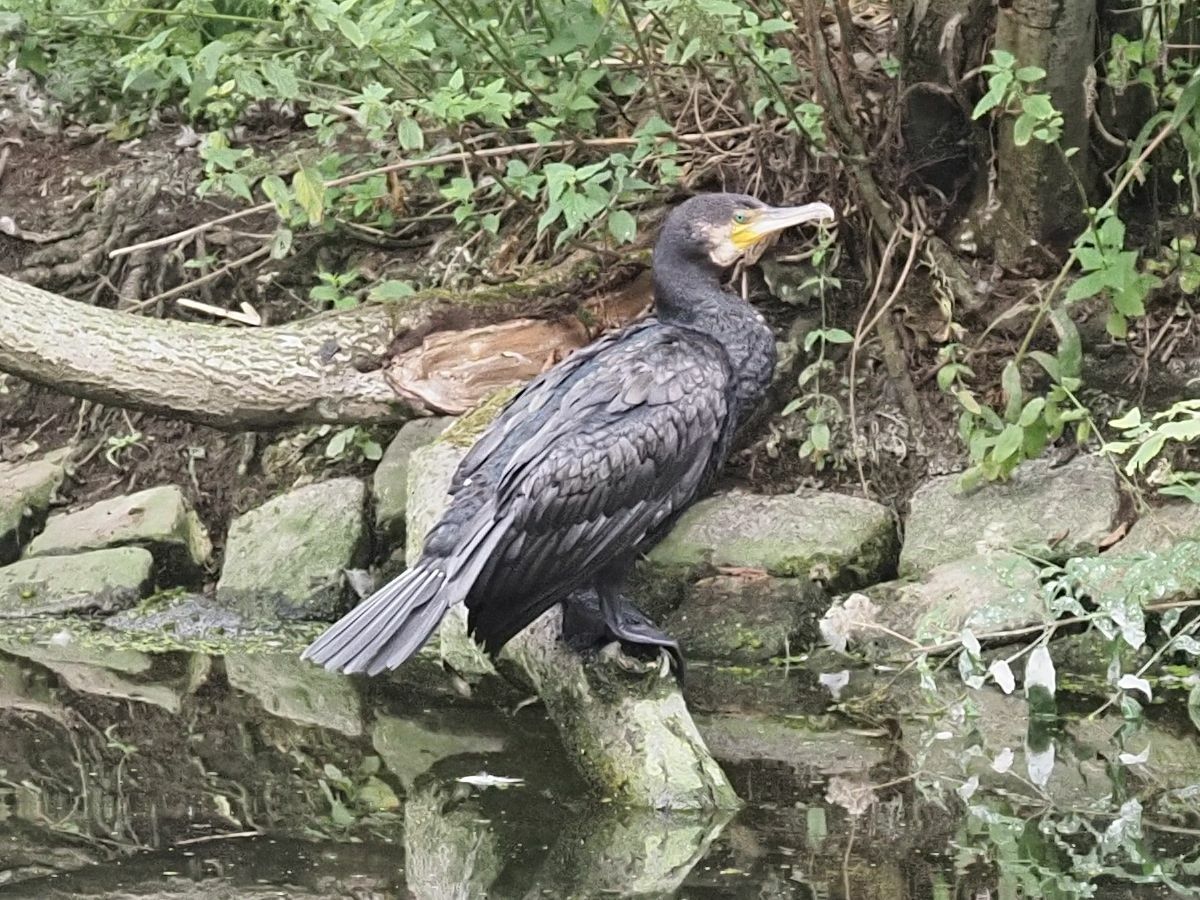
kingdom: Animalia
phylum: Chordata
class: Aves
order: Suliformes
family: Phalacrocoracidae
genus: Phalacrocorax
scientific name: Phalacrocorax carbo
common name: Great cormorant
